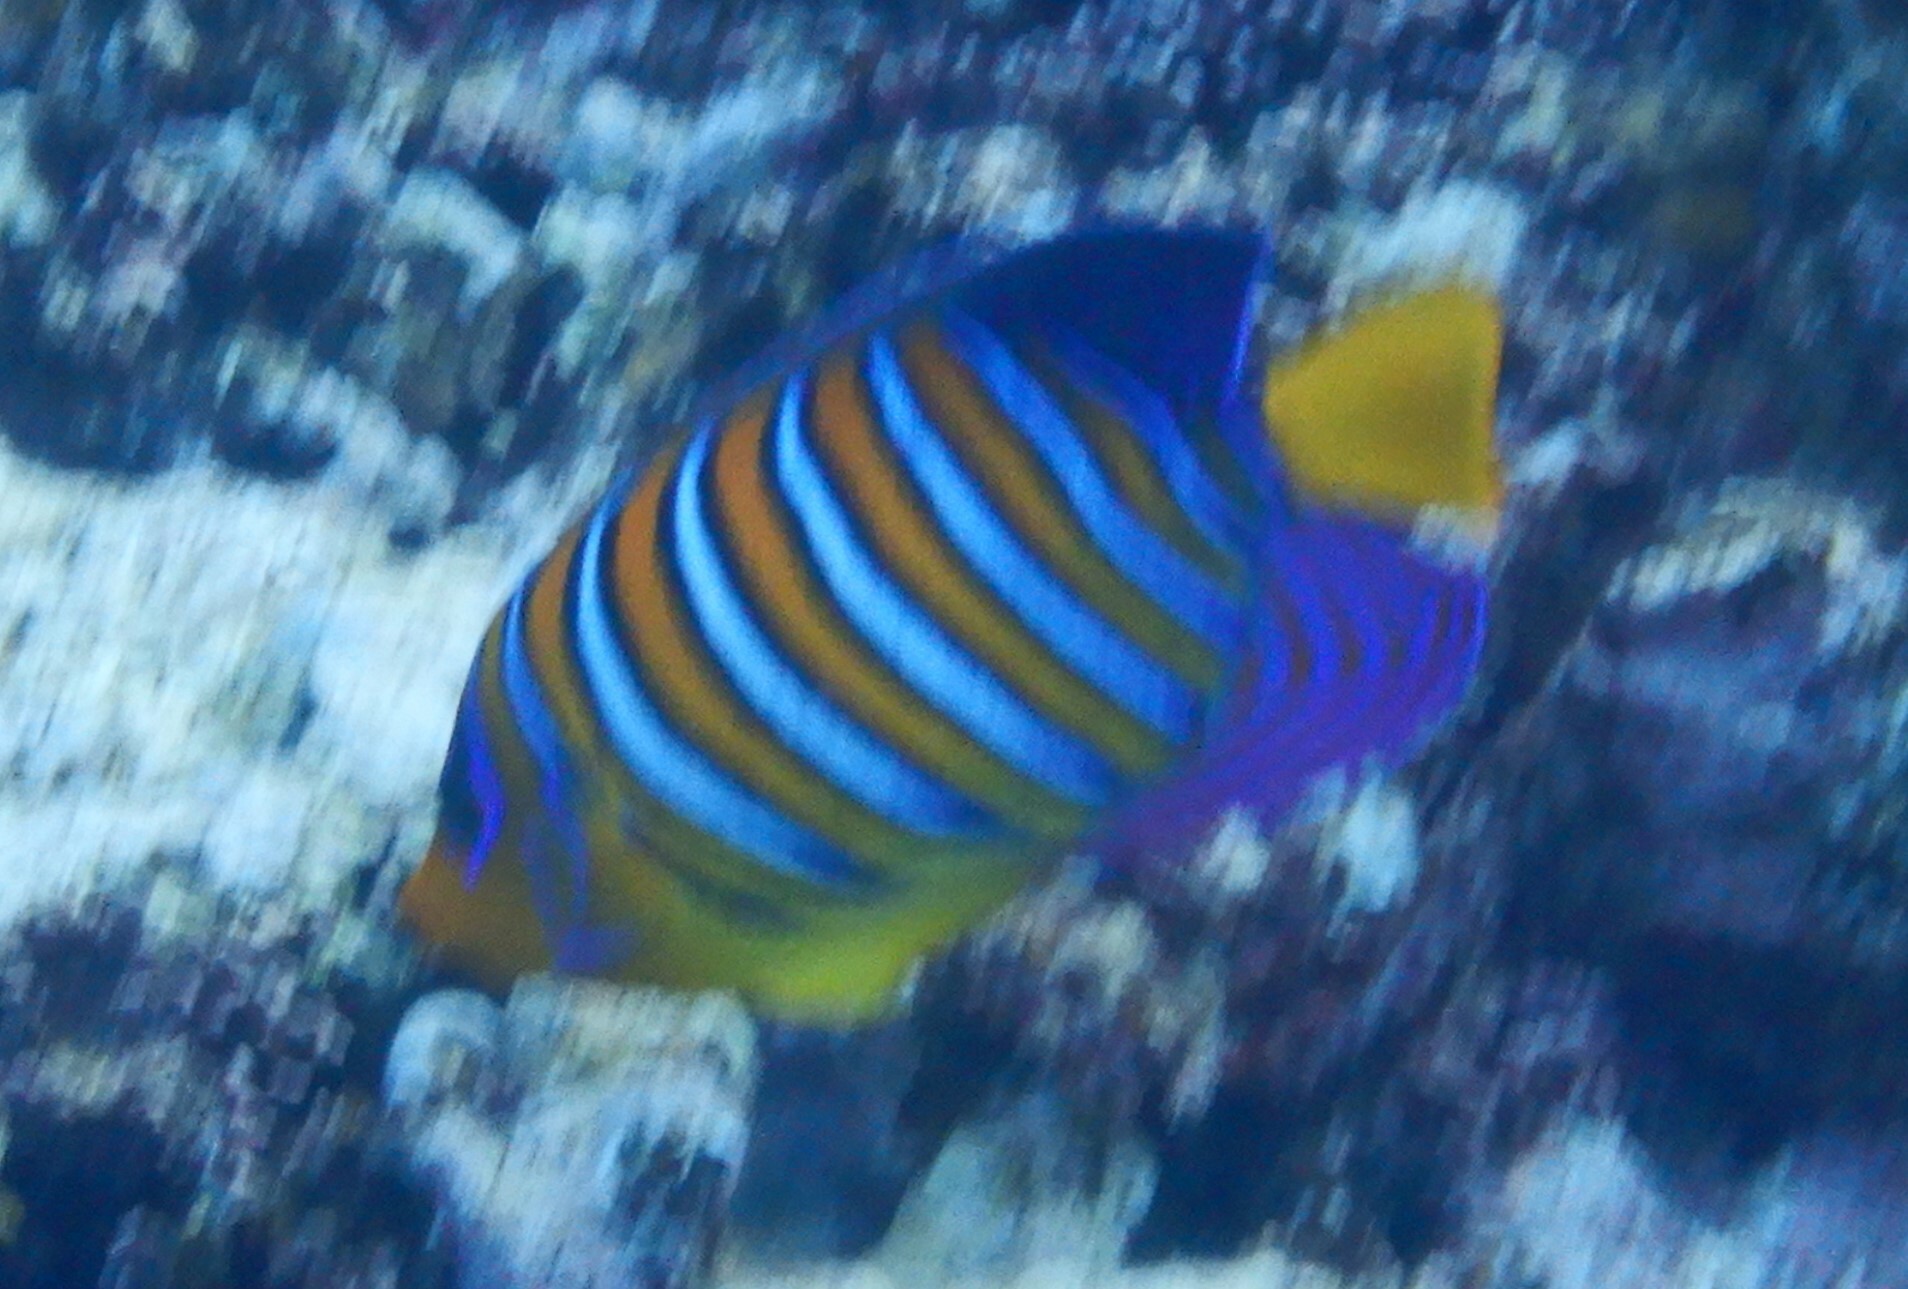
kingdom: Animalia
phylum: Chordata
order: Perciformes
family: Pomacanthidae
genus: Pygoplites
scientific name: Pygoplites diacanthus
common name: Regal angelfish
